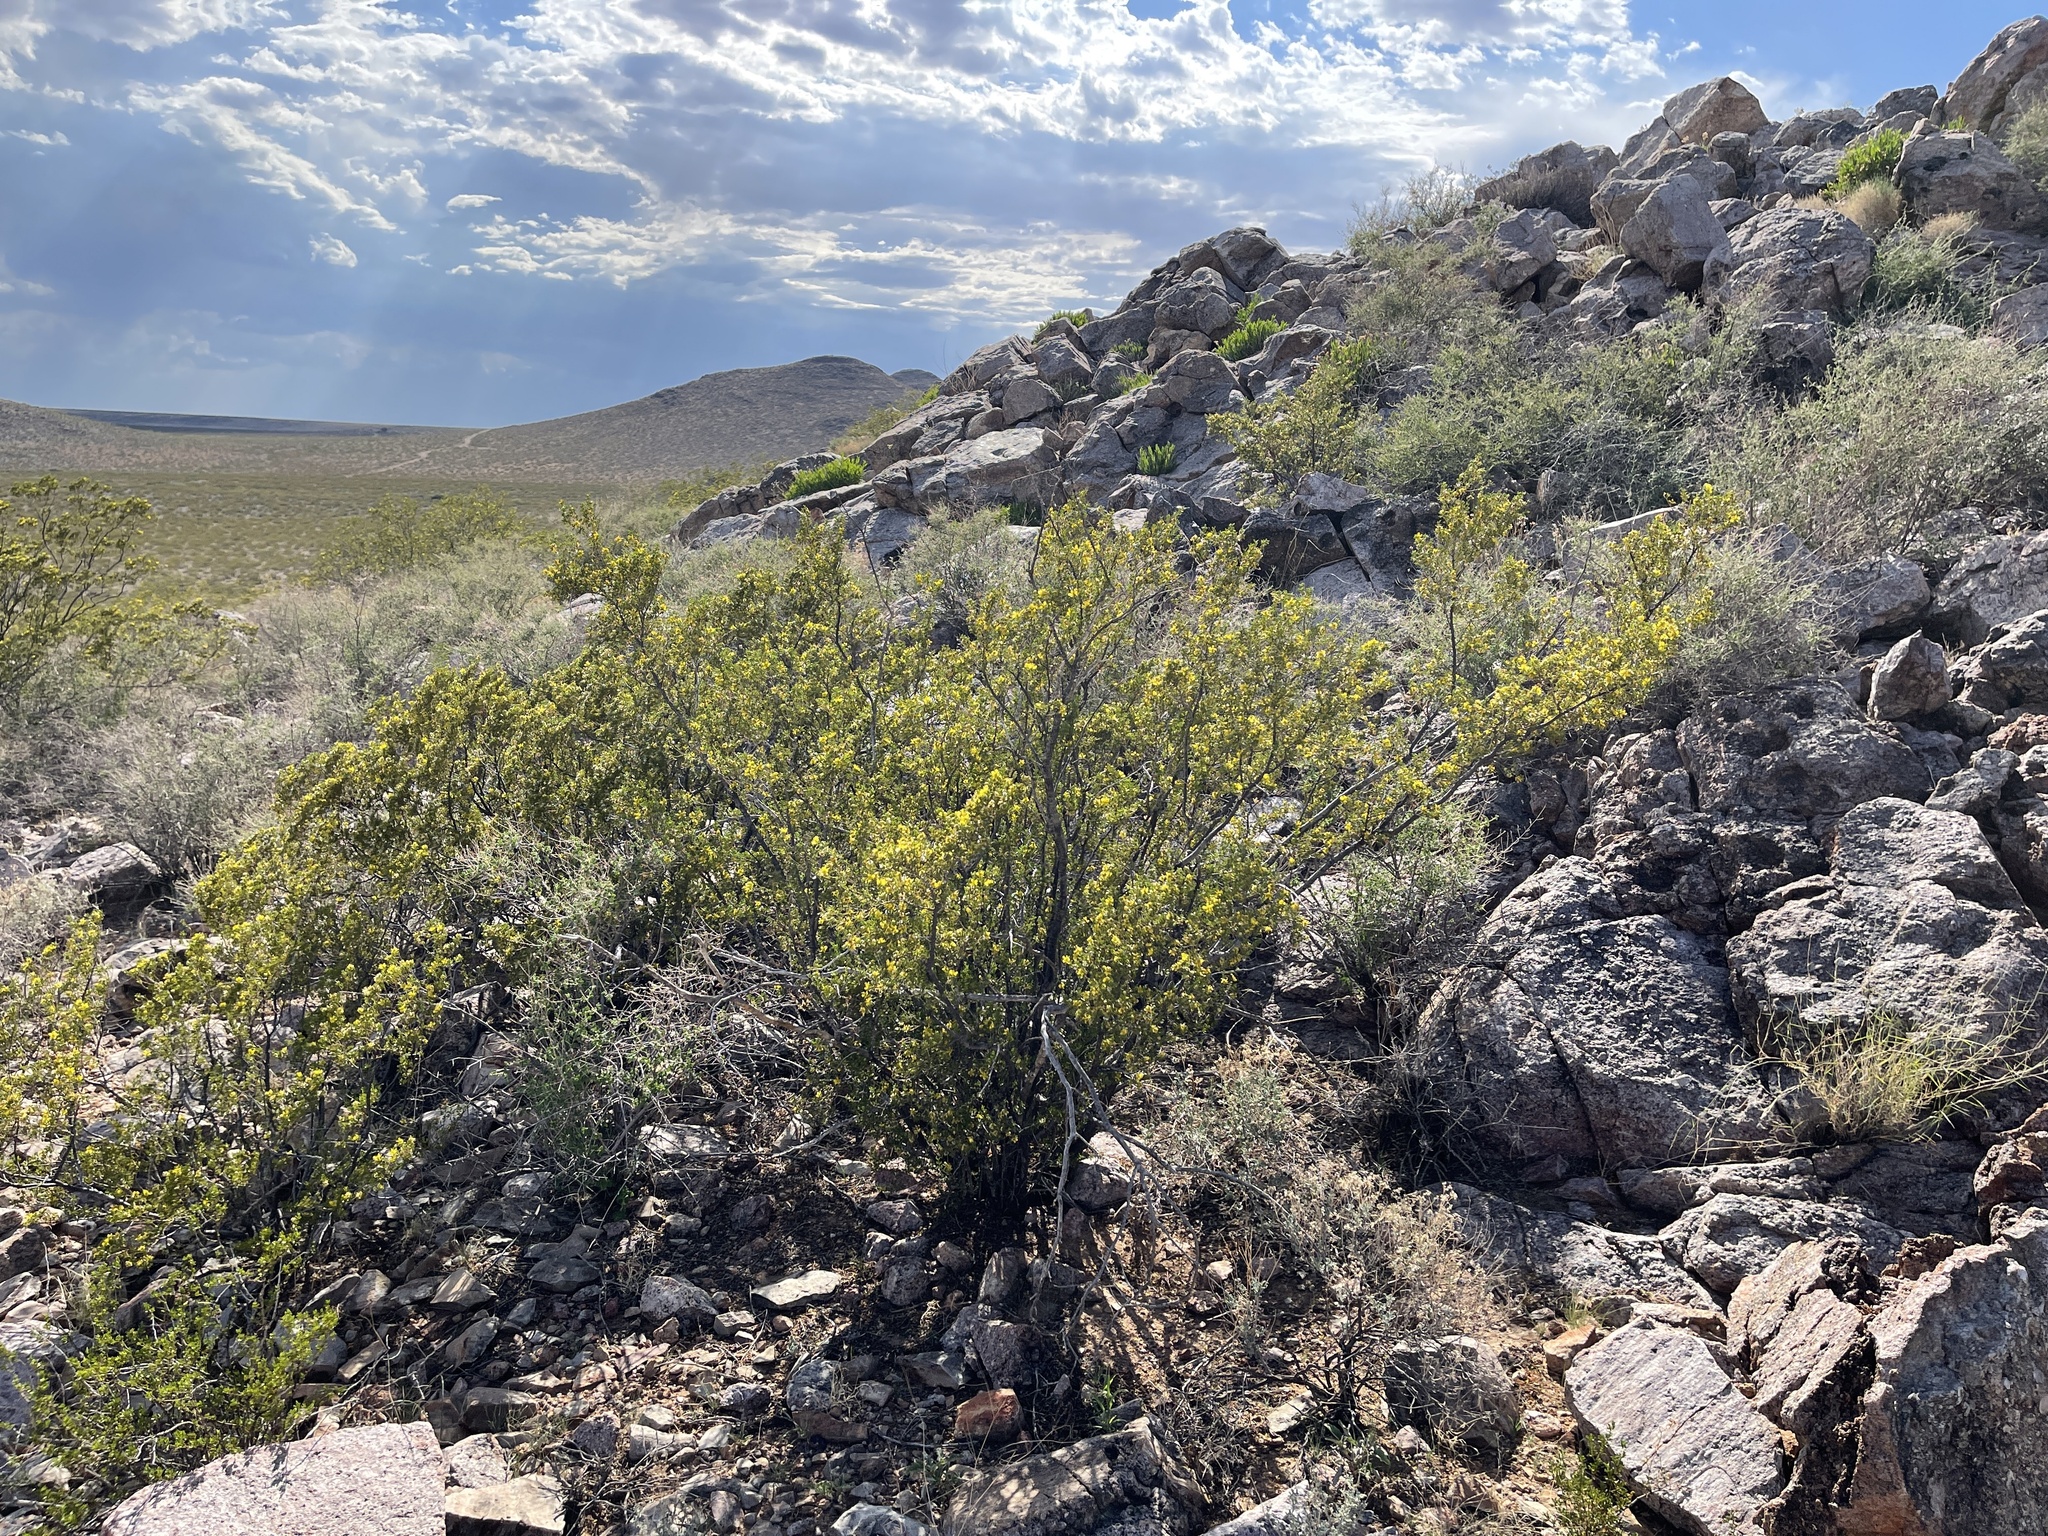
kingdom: Plantae
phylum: Tracheophyta
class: Magnoliopsida
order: Zygophyllales
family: Zygophyllaceae
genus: Larrea
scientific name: Larrea tridentata
